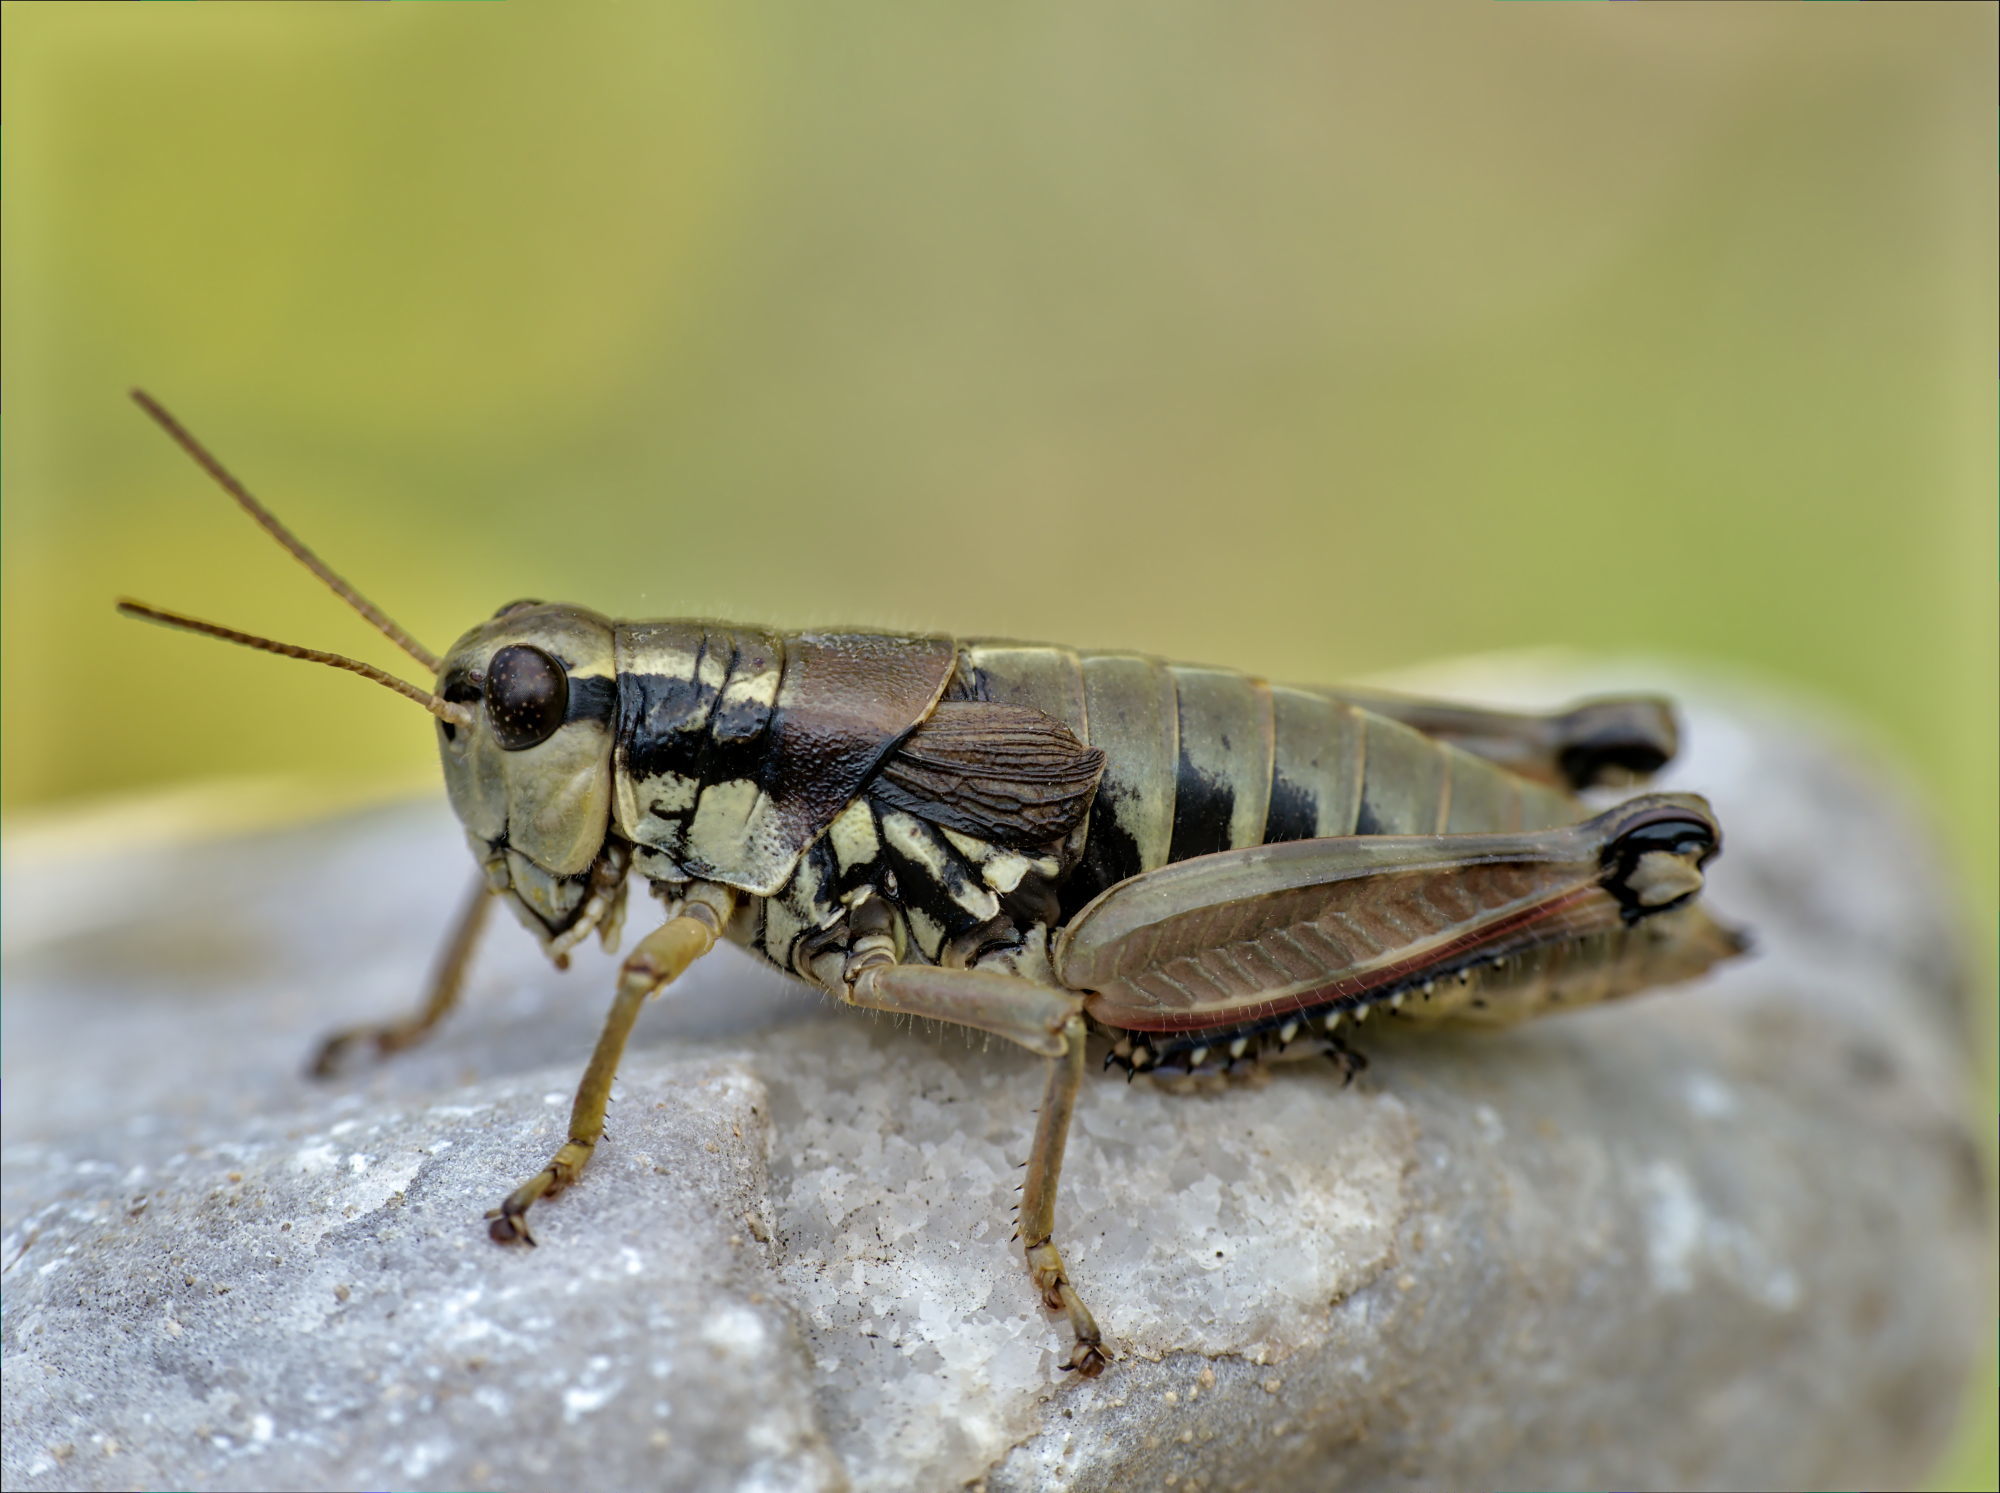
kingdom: Animalia
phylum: Arthropoda
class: Insecta
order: Orthoptera
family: Acrididae
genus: Podisma
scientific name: Podisma pedestris
